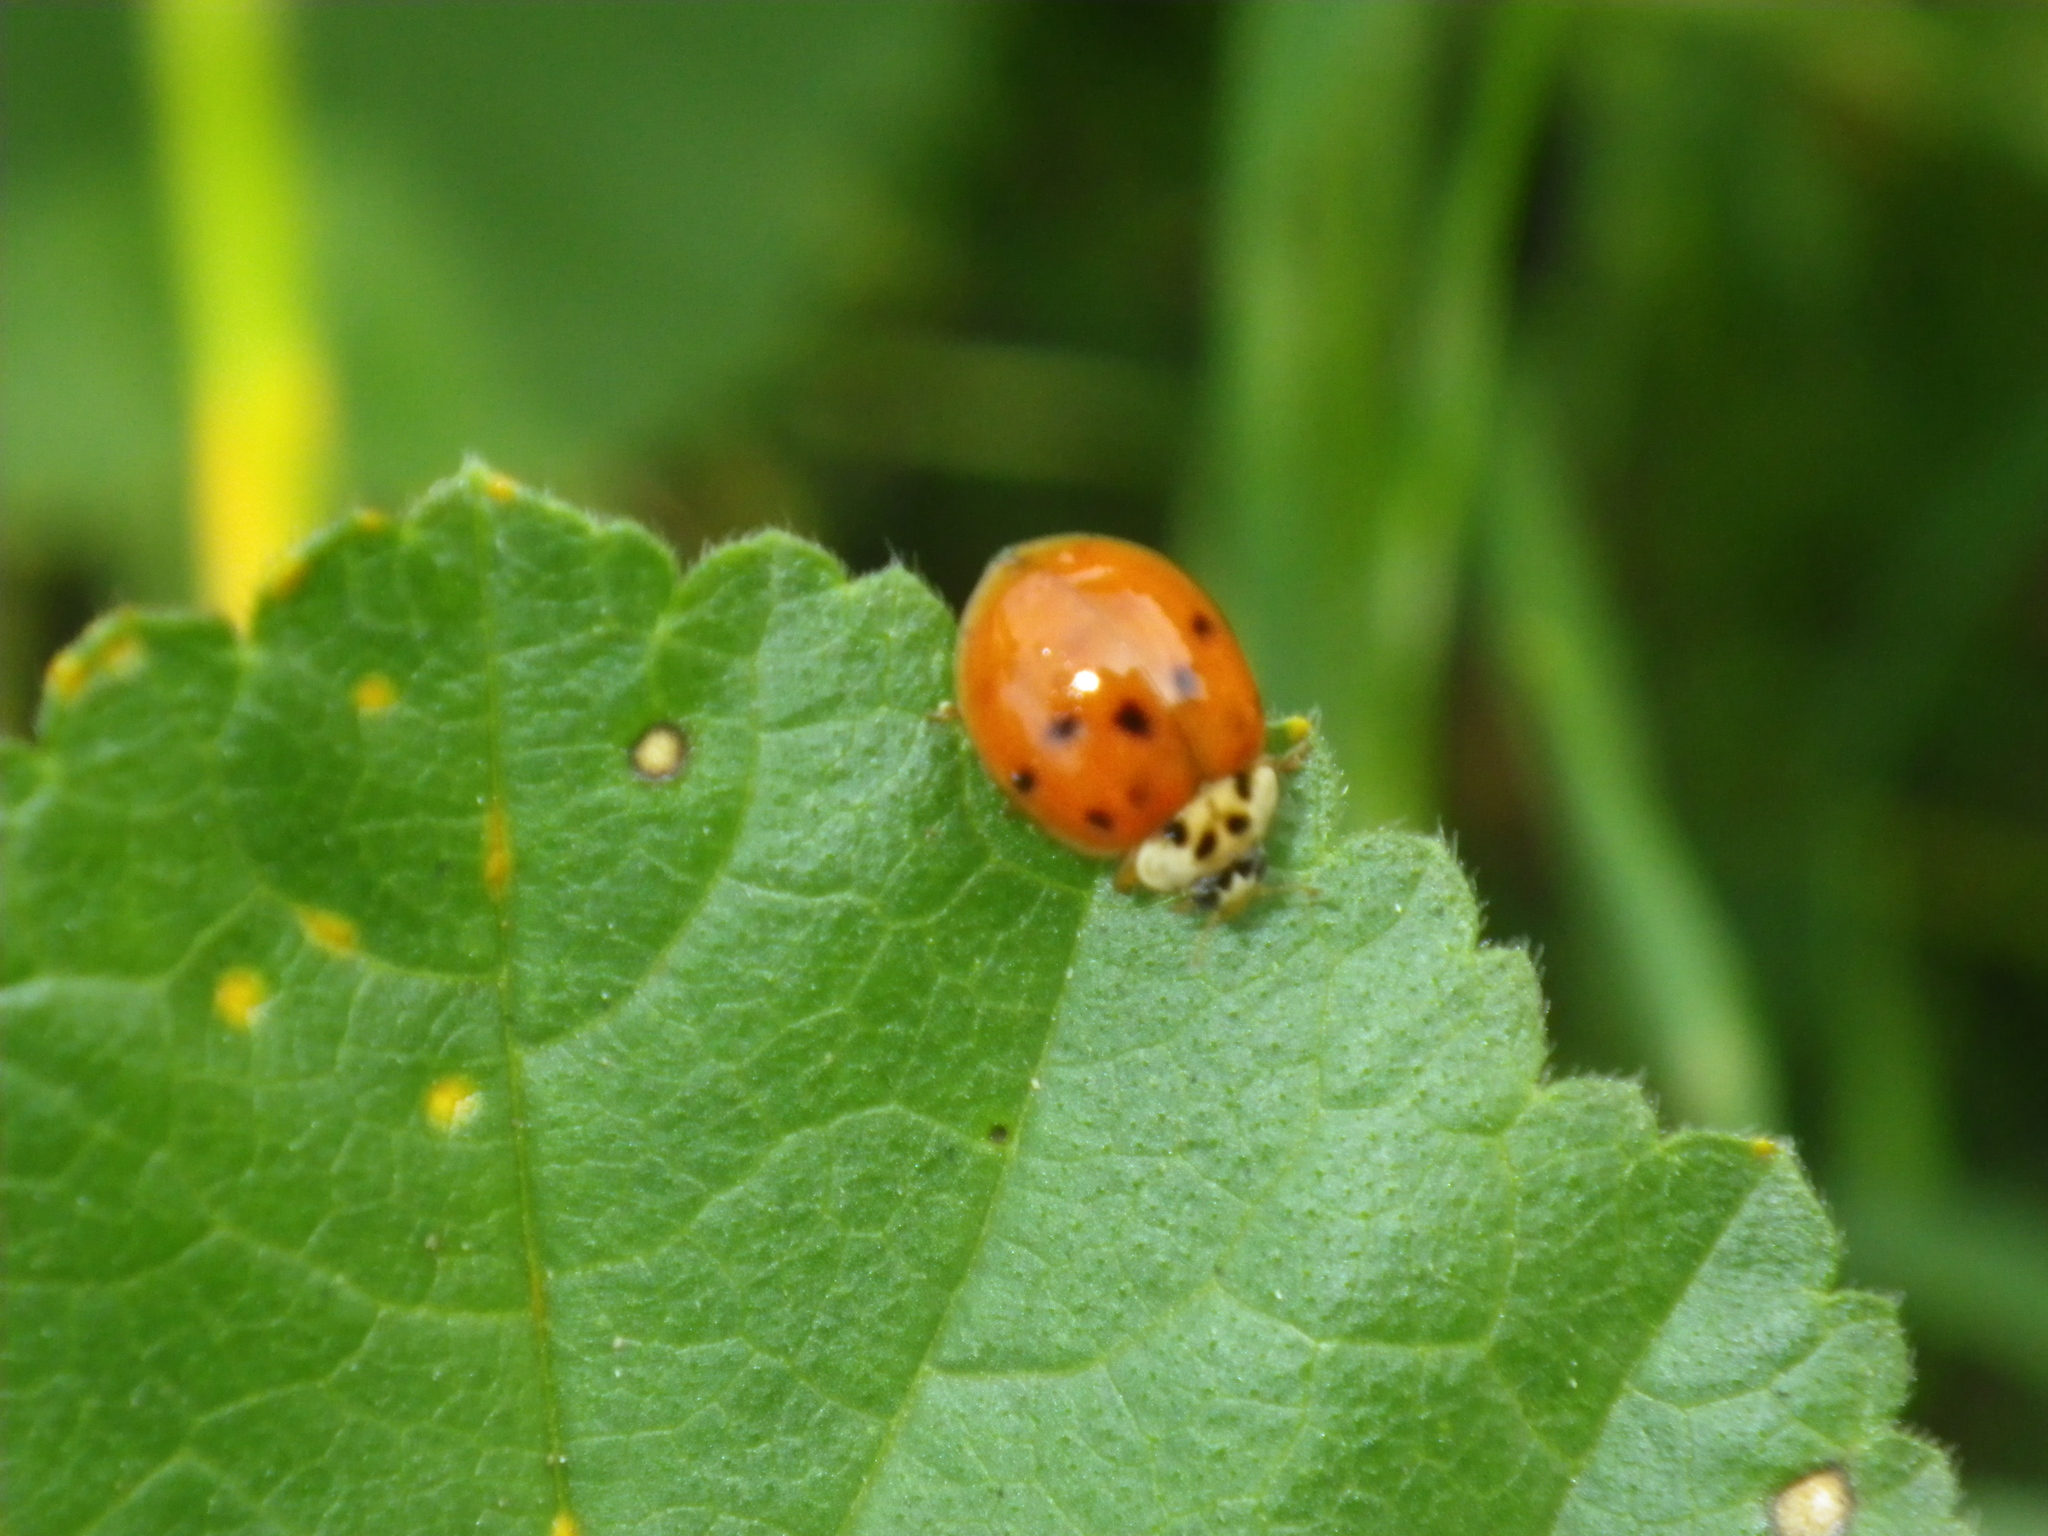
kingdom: Animalia
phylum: Arthropoda
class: Insecta
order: Coleoptera
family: Coccinellidae
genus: Harmonia
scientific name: Harmonia axyridis
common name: Harlequin ladybird
